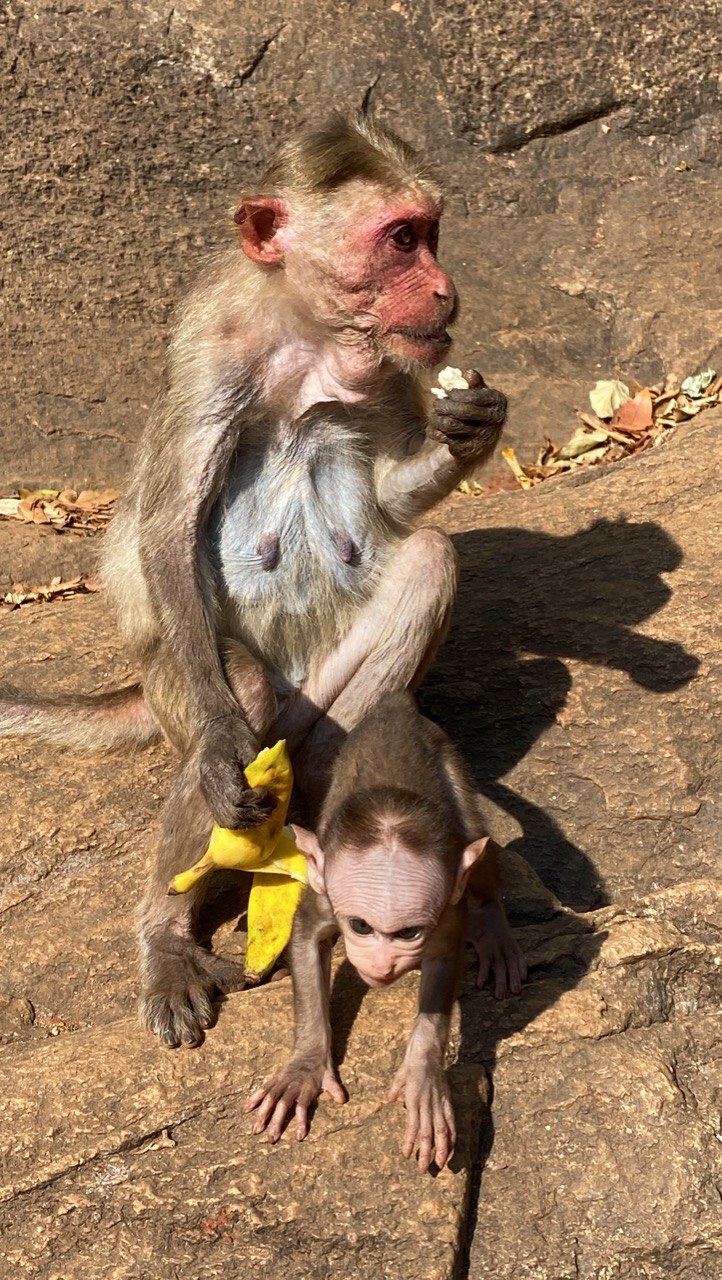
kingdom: Animalia
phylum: Chordata
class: Mammalia
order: Primates
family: Cercopithecidae
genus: Macaca
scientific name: Macaca radiata
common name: Bonnet macaque
